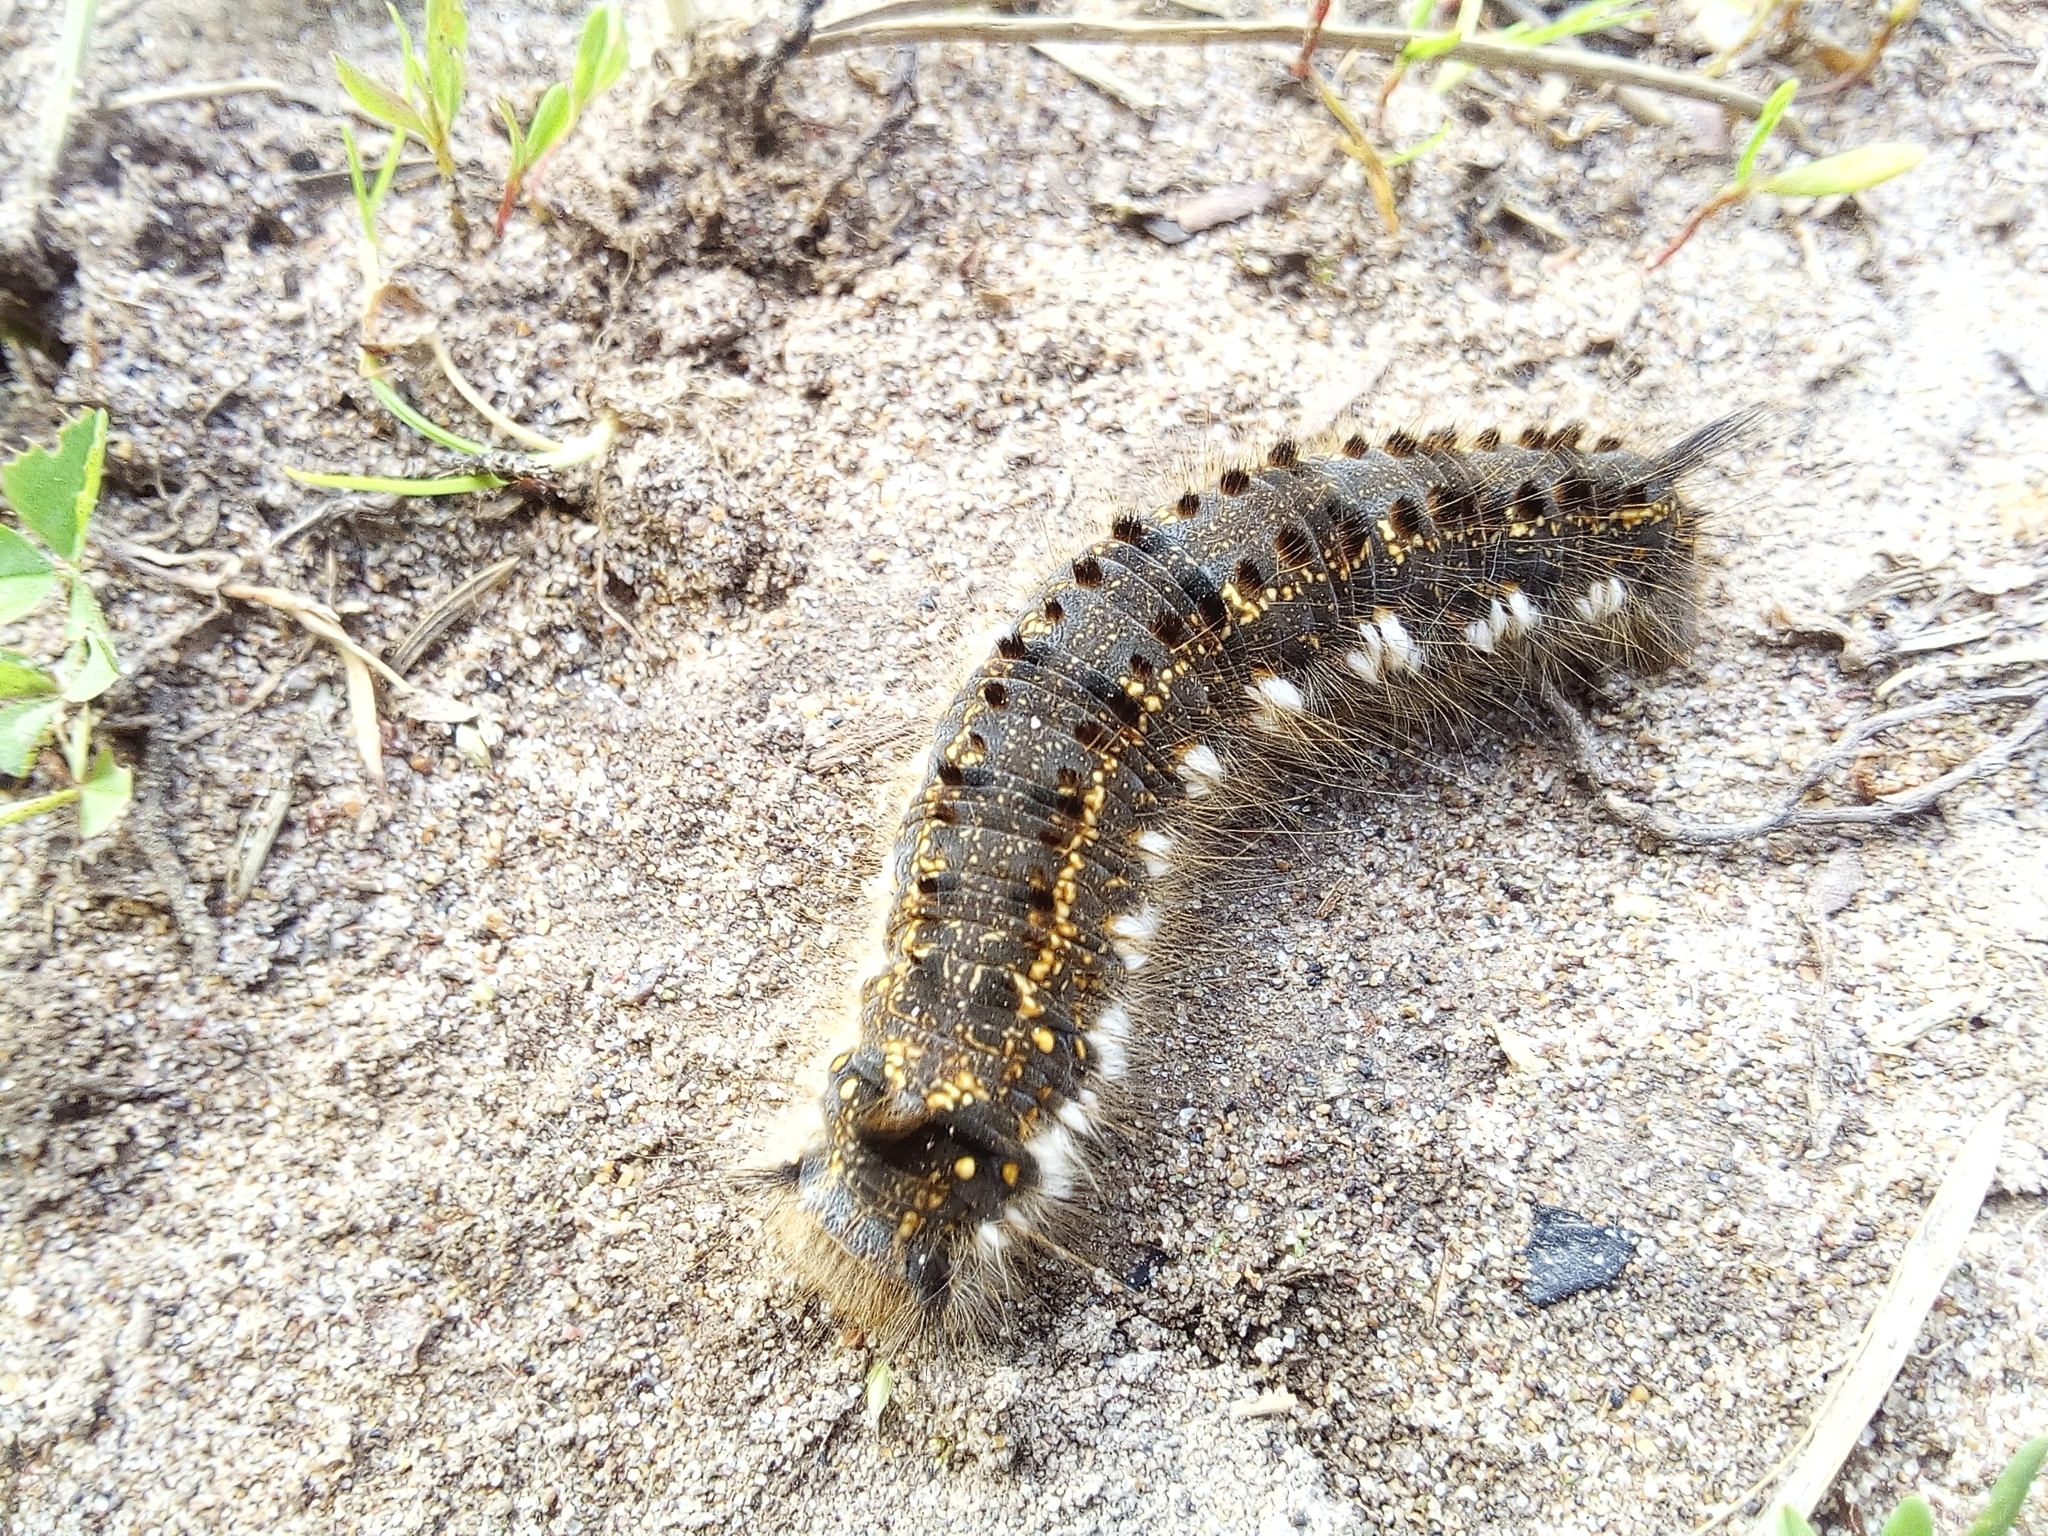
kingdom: Animalia
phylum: Arthropoda
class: Insecta
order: Lepidoptera
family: Lasiocampidae
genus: Euthrix
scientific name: Euthrix potatoria
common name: Drinker
